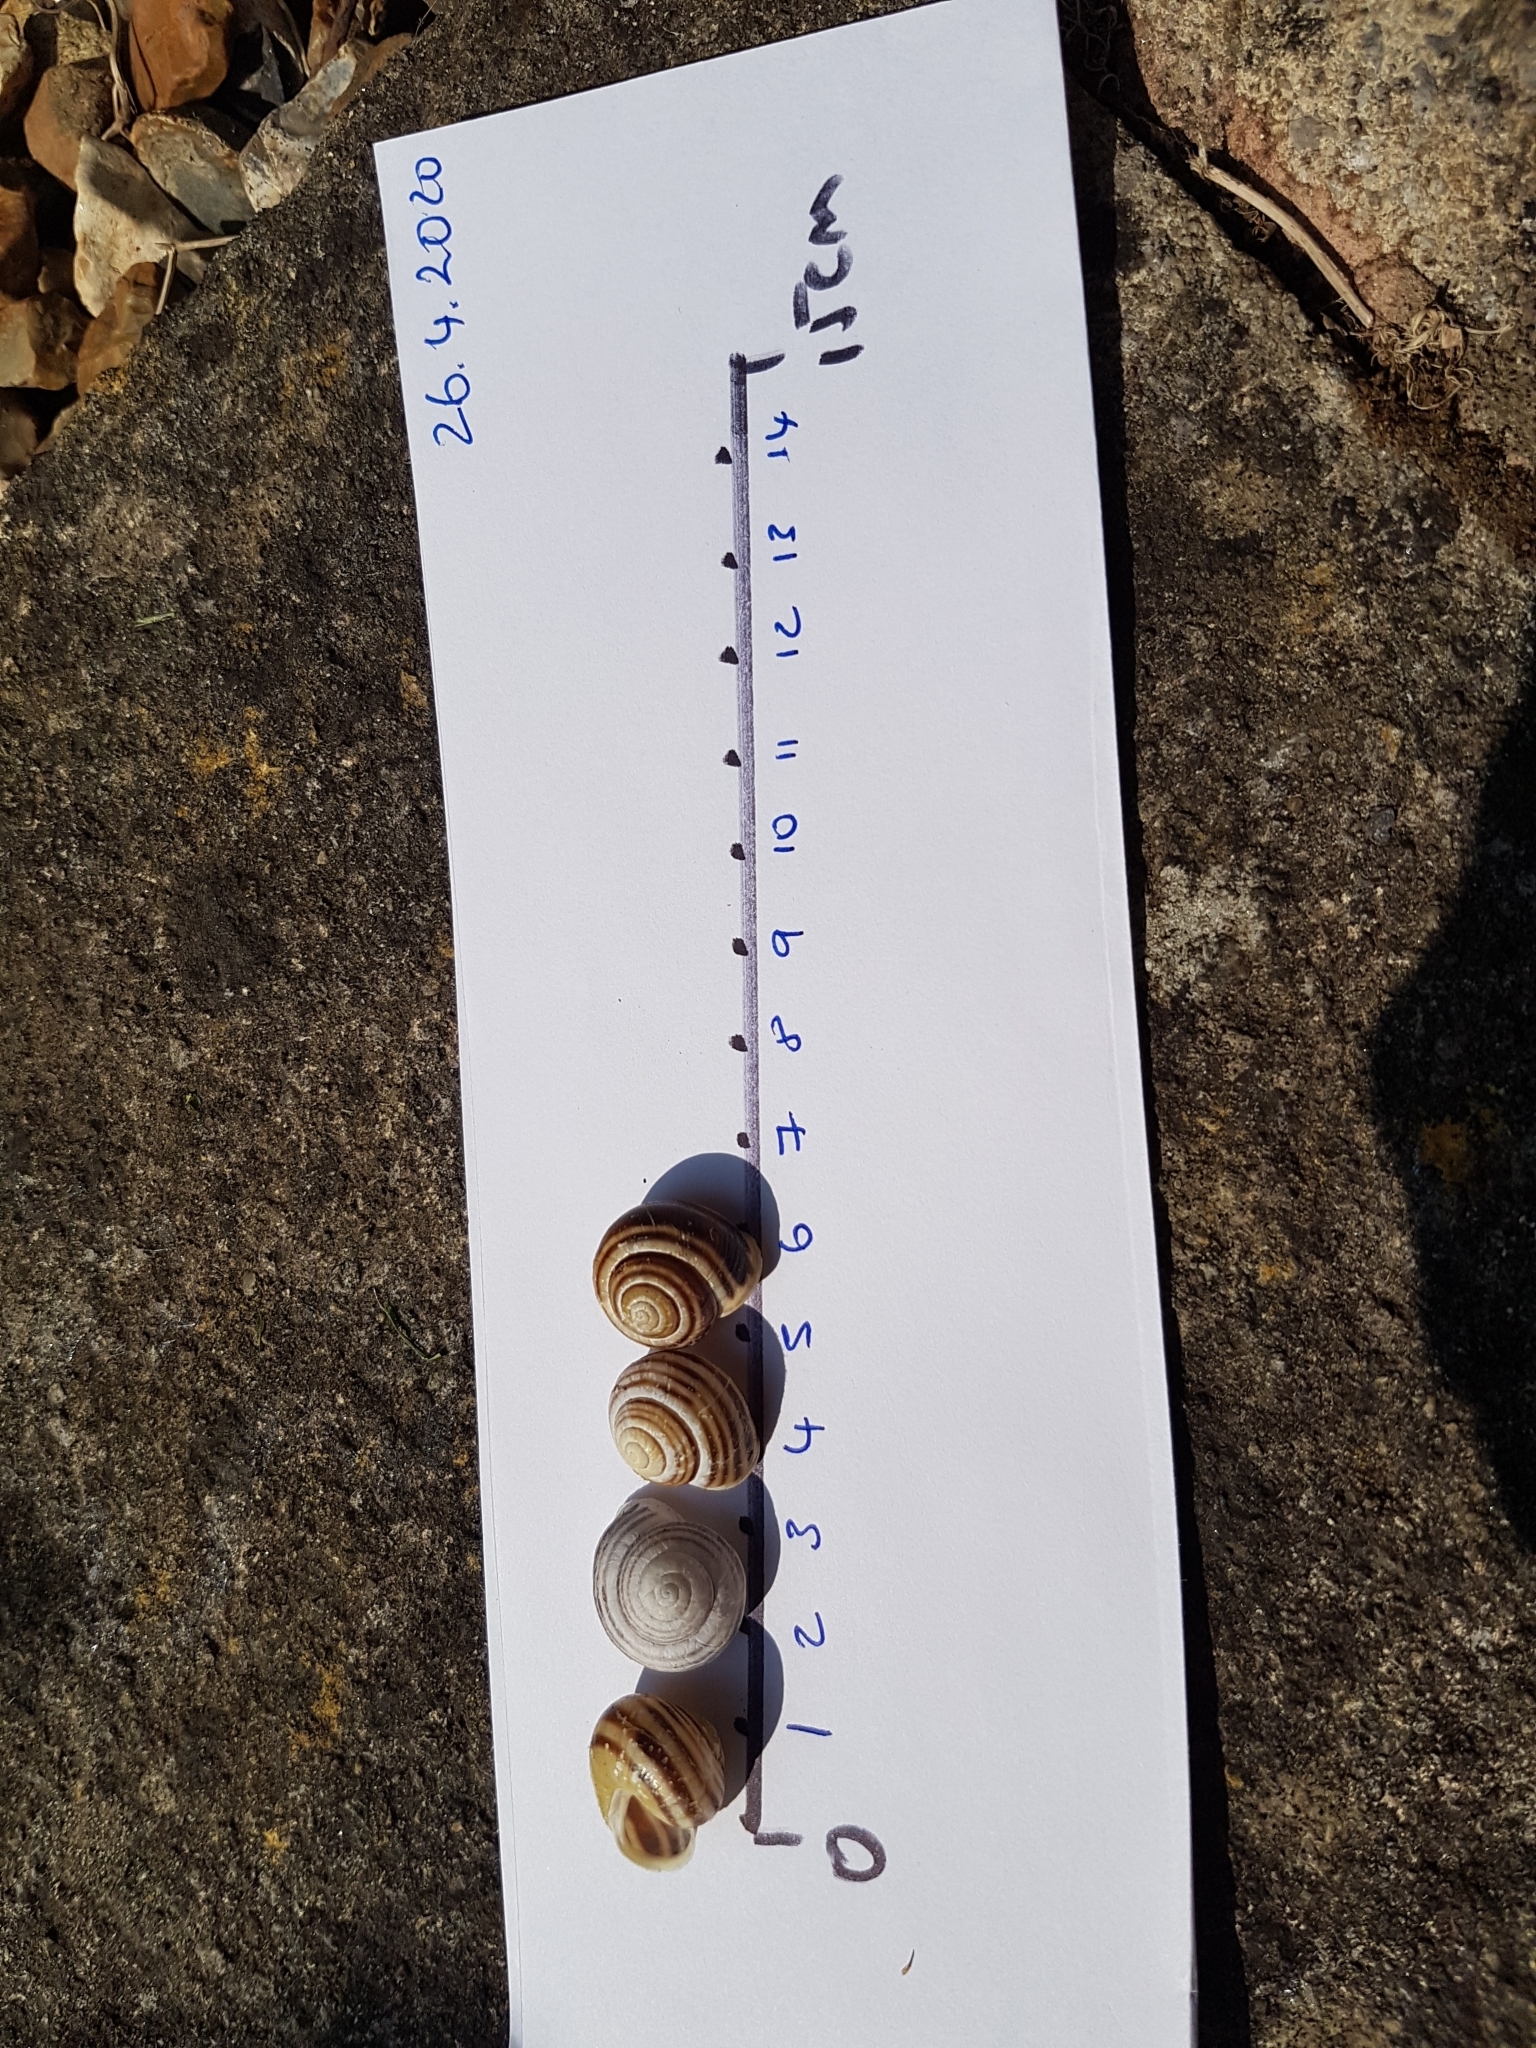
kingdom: Animalia
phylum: Mollusca
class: Gastropoda
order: Stylommatophora
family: Helicidae
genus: Cepaea
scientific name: Cepaea hortensis
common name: White-lip gardensnail
